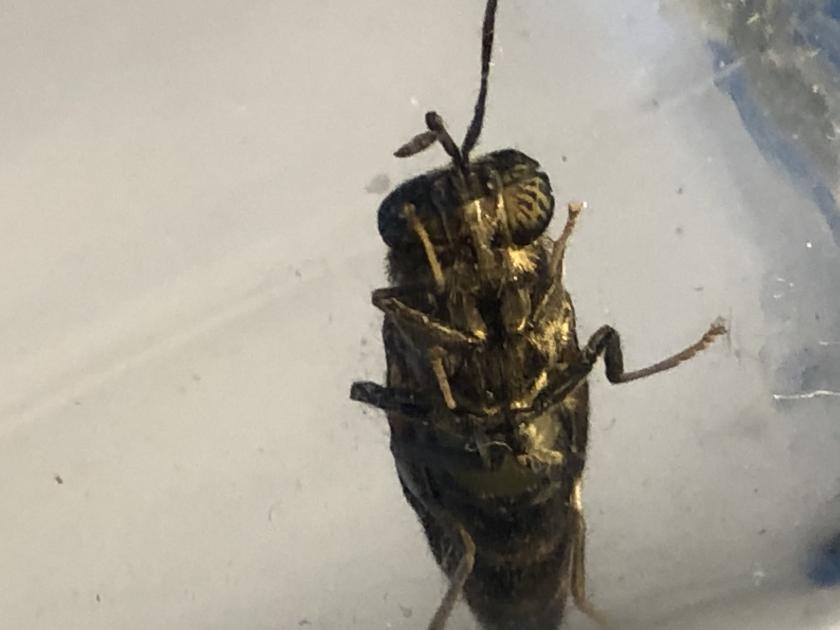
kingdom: Animalia
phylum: Arthropoda
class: Insecta
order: Diptera
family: Stratiomyidae
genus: Hermetia
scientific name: Hermetia illucens
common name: Black soldier fly
